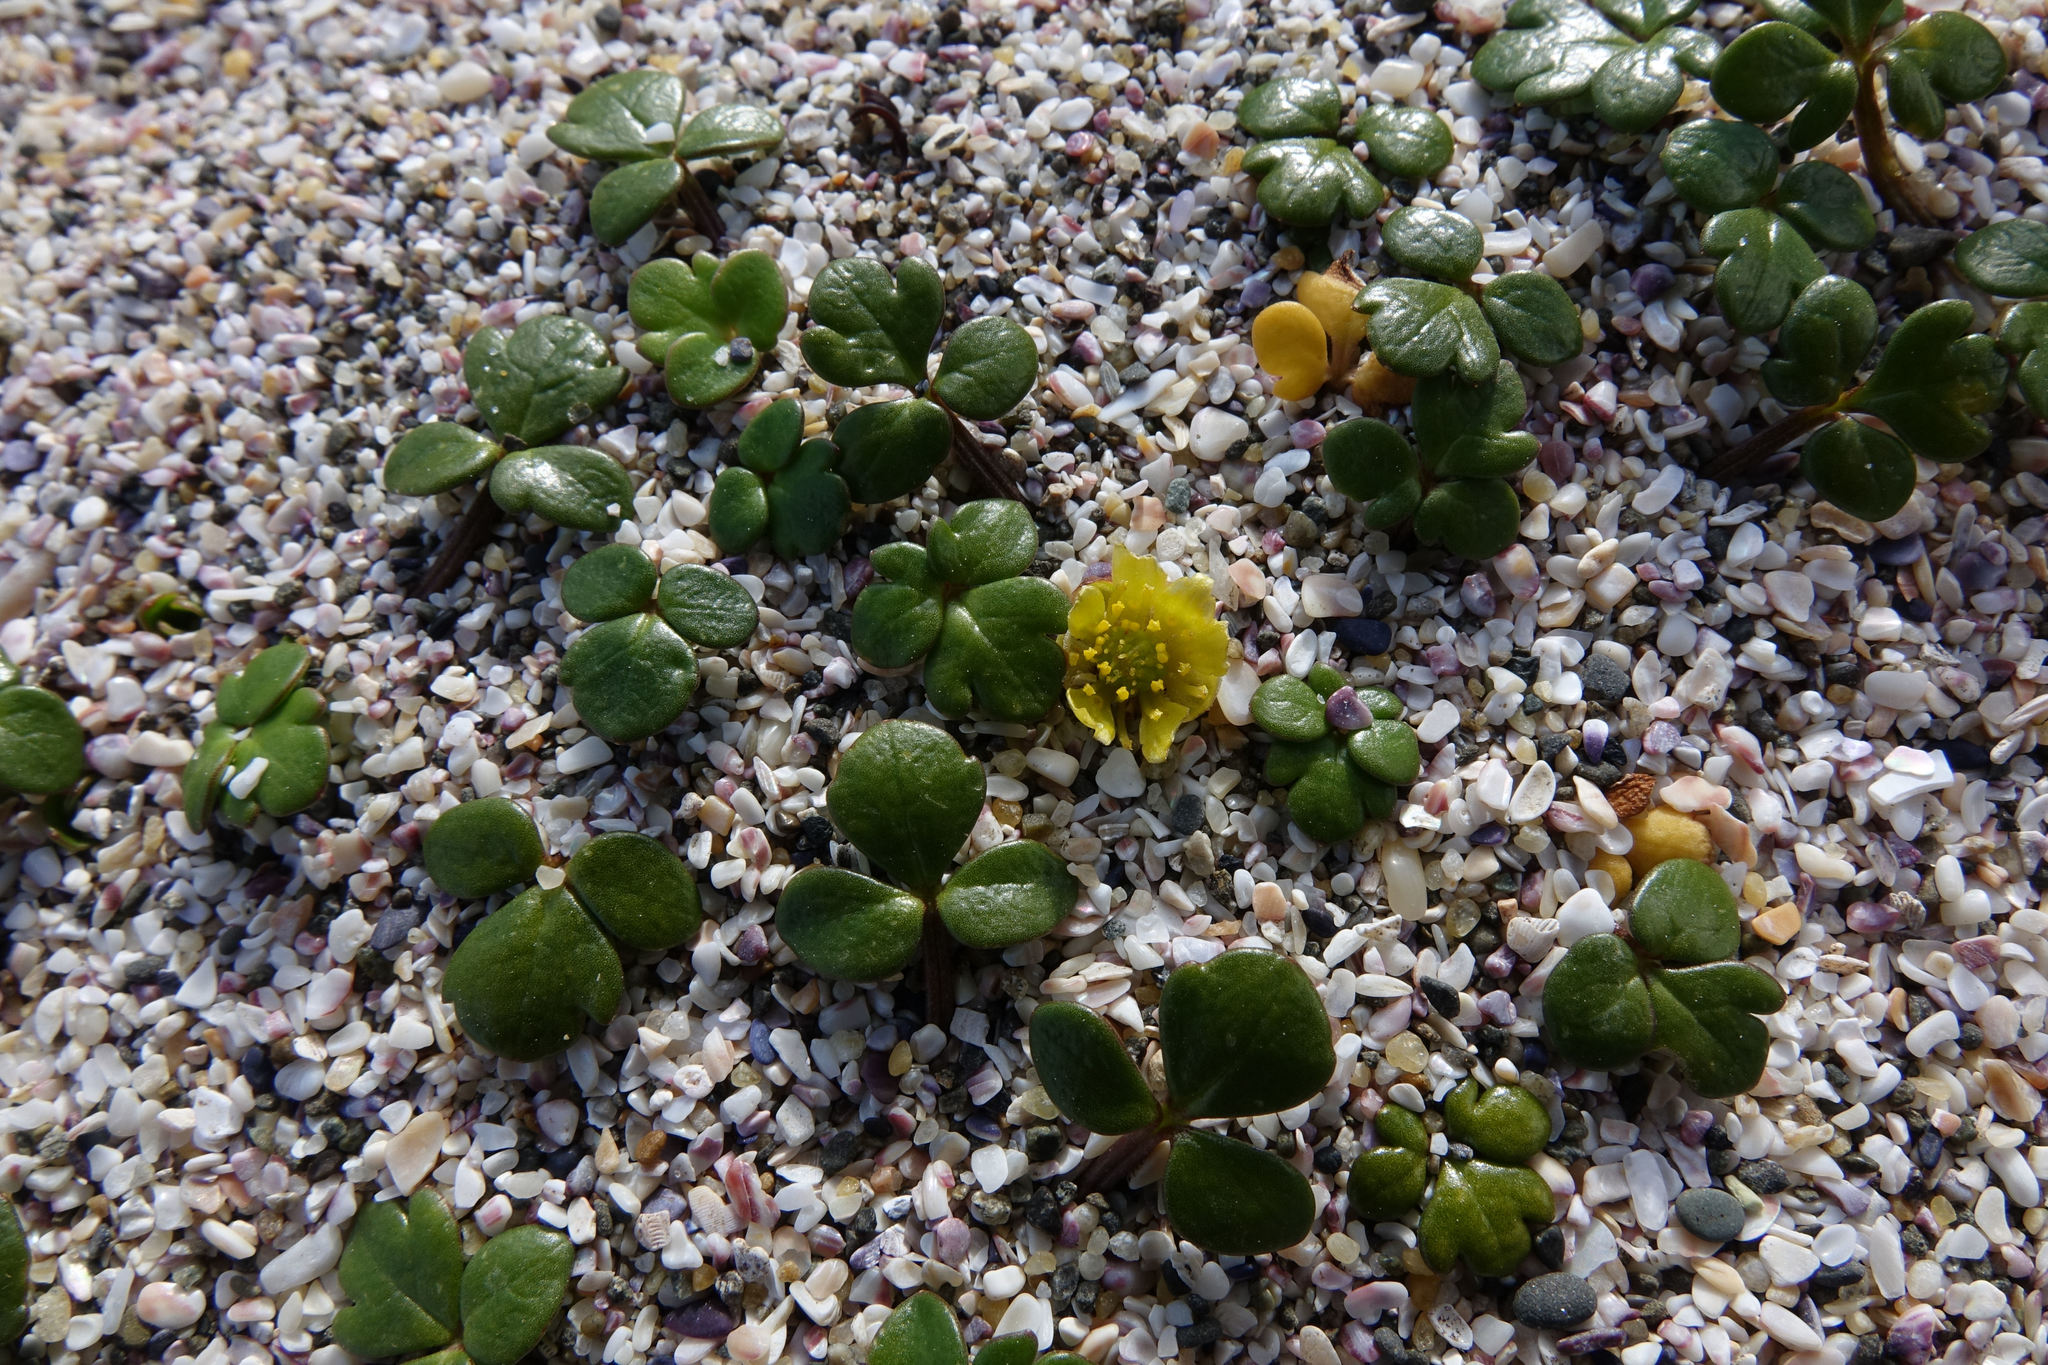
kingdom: Plantae
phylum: Tracheophyta
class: Magnoliopsida
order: Ranunculales
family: Ranunculaceae
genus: Ranunculus
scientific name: Ranunculus acaulis
